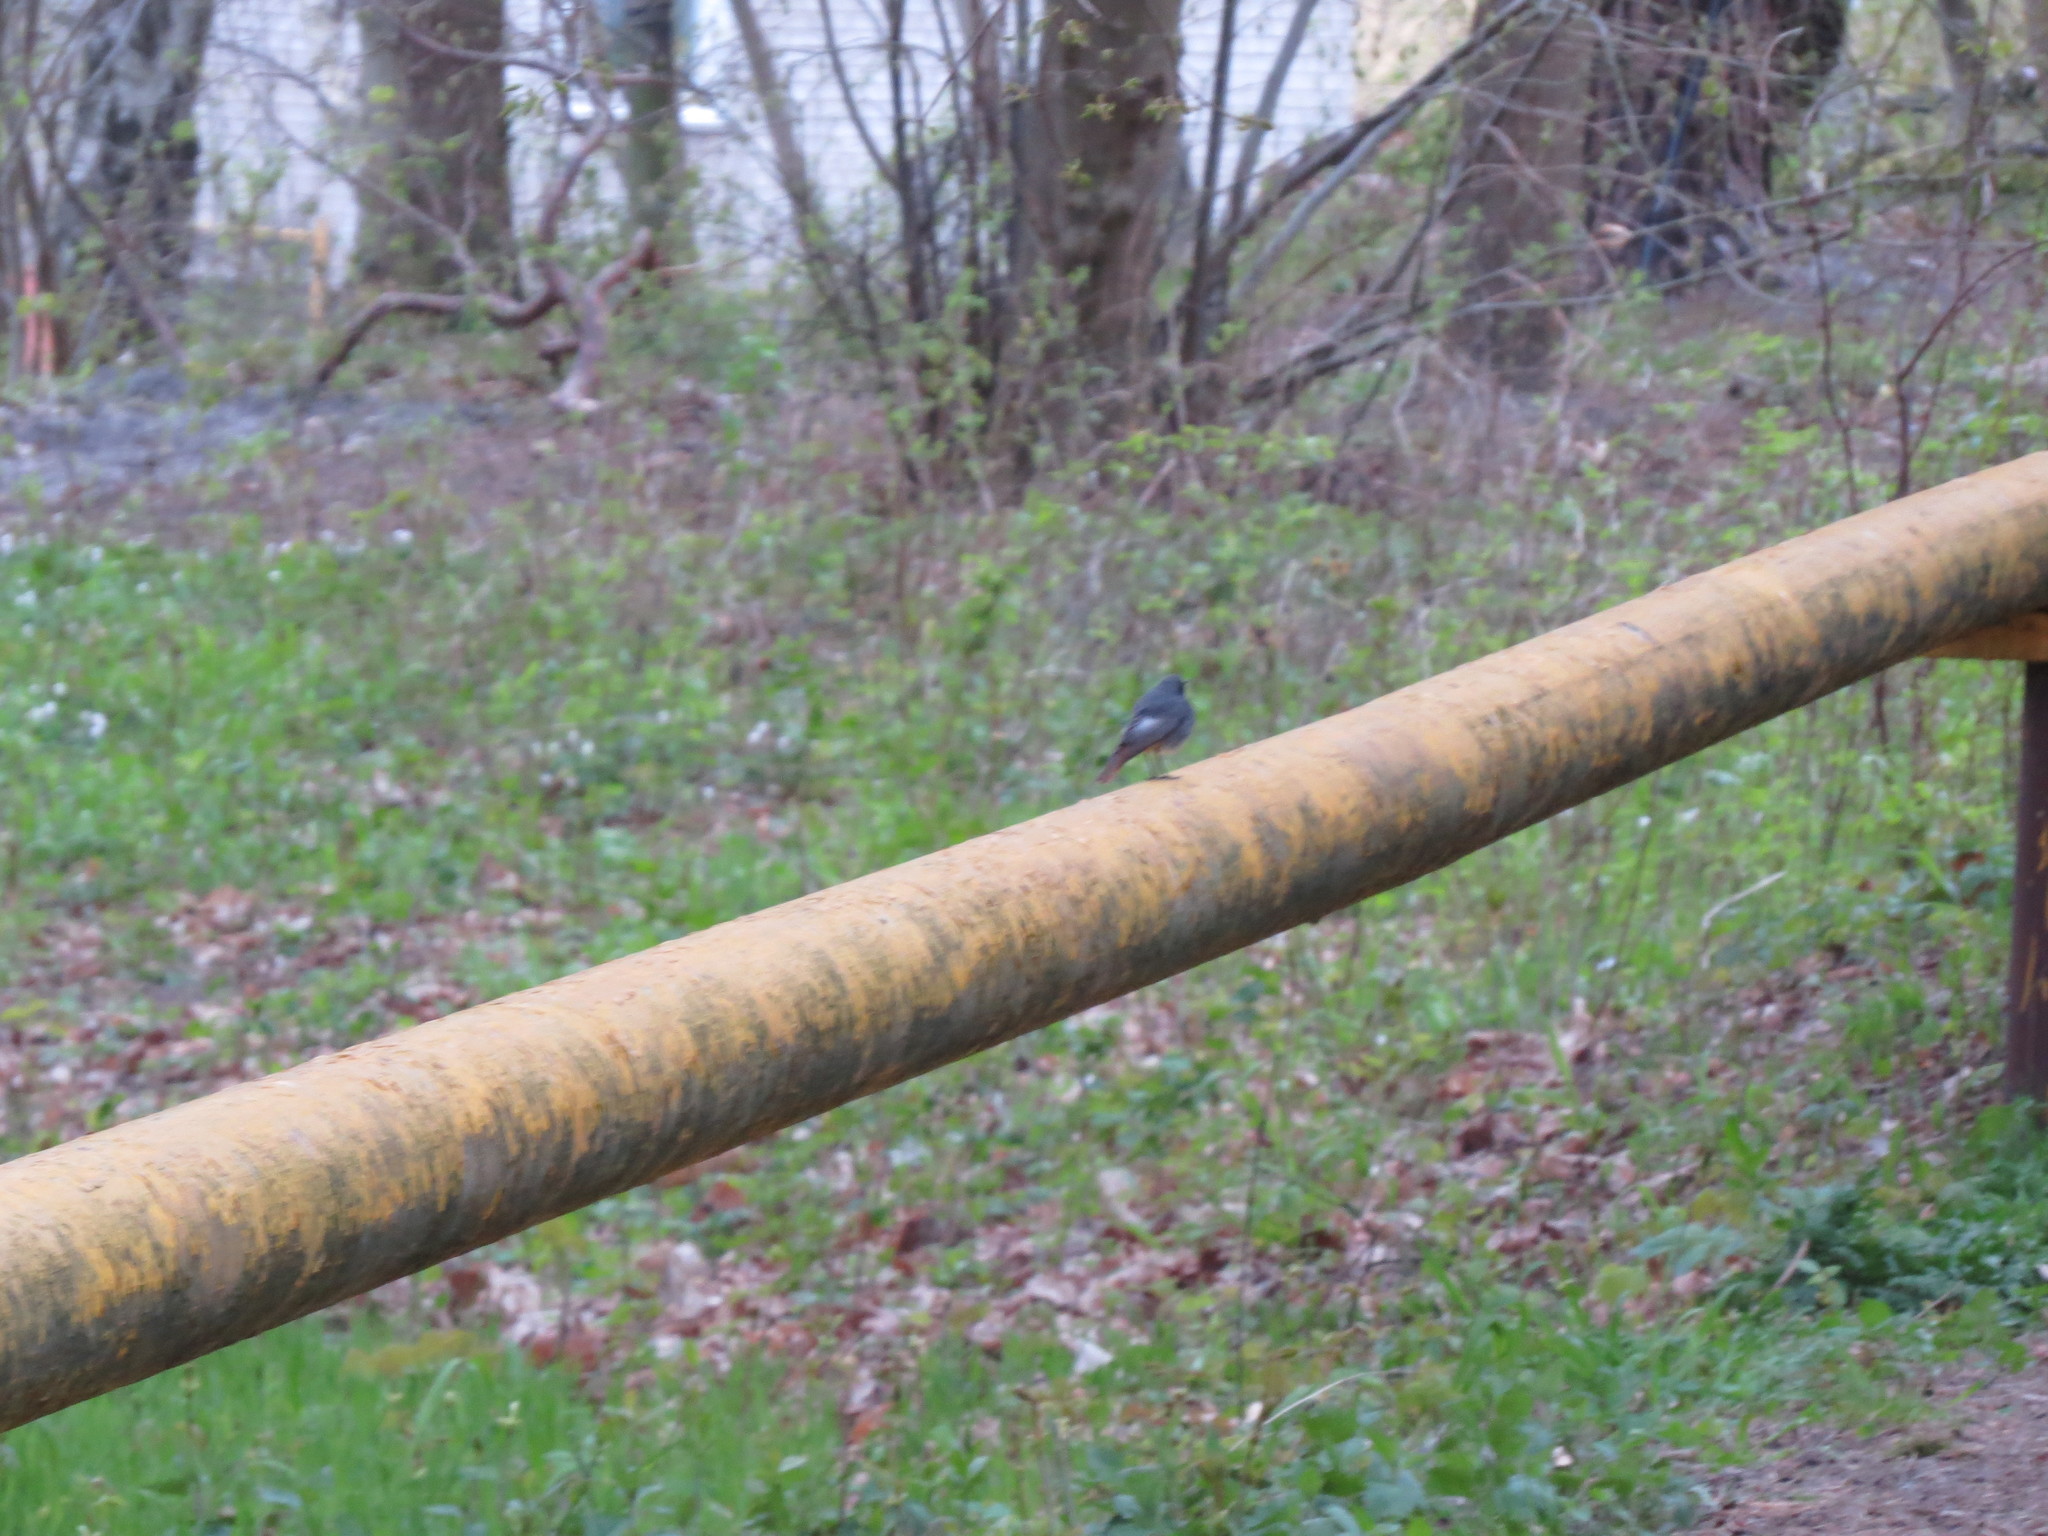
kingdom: Animalia
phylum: Chordata
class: Aves
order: Passeriformes
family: Muscicapidae
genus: Phoenicurus
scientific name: Phoenicurus ochruros
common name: Black redstart
